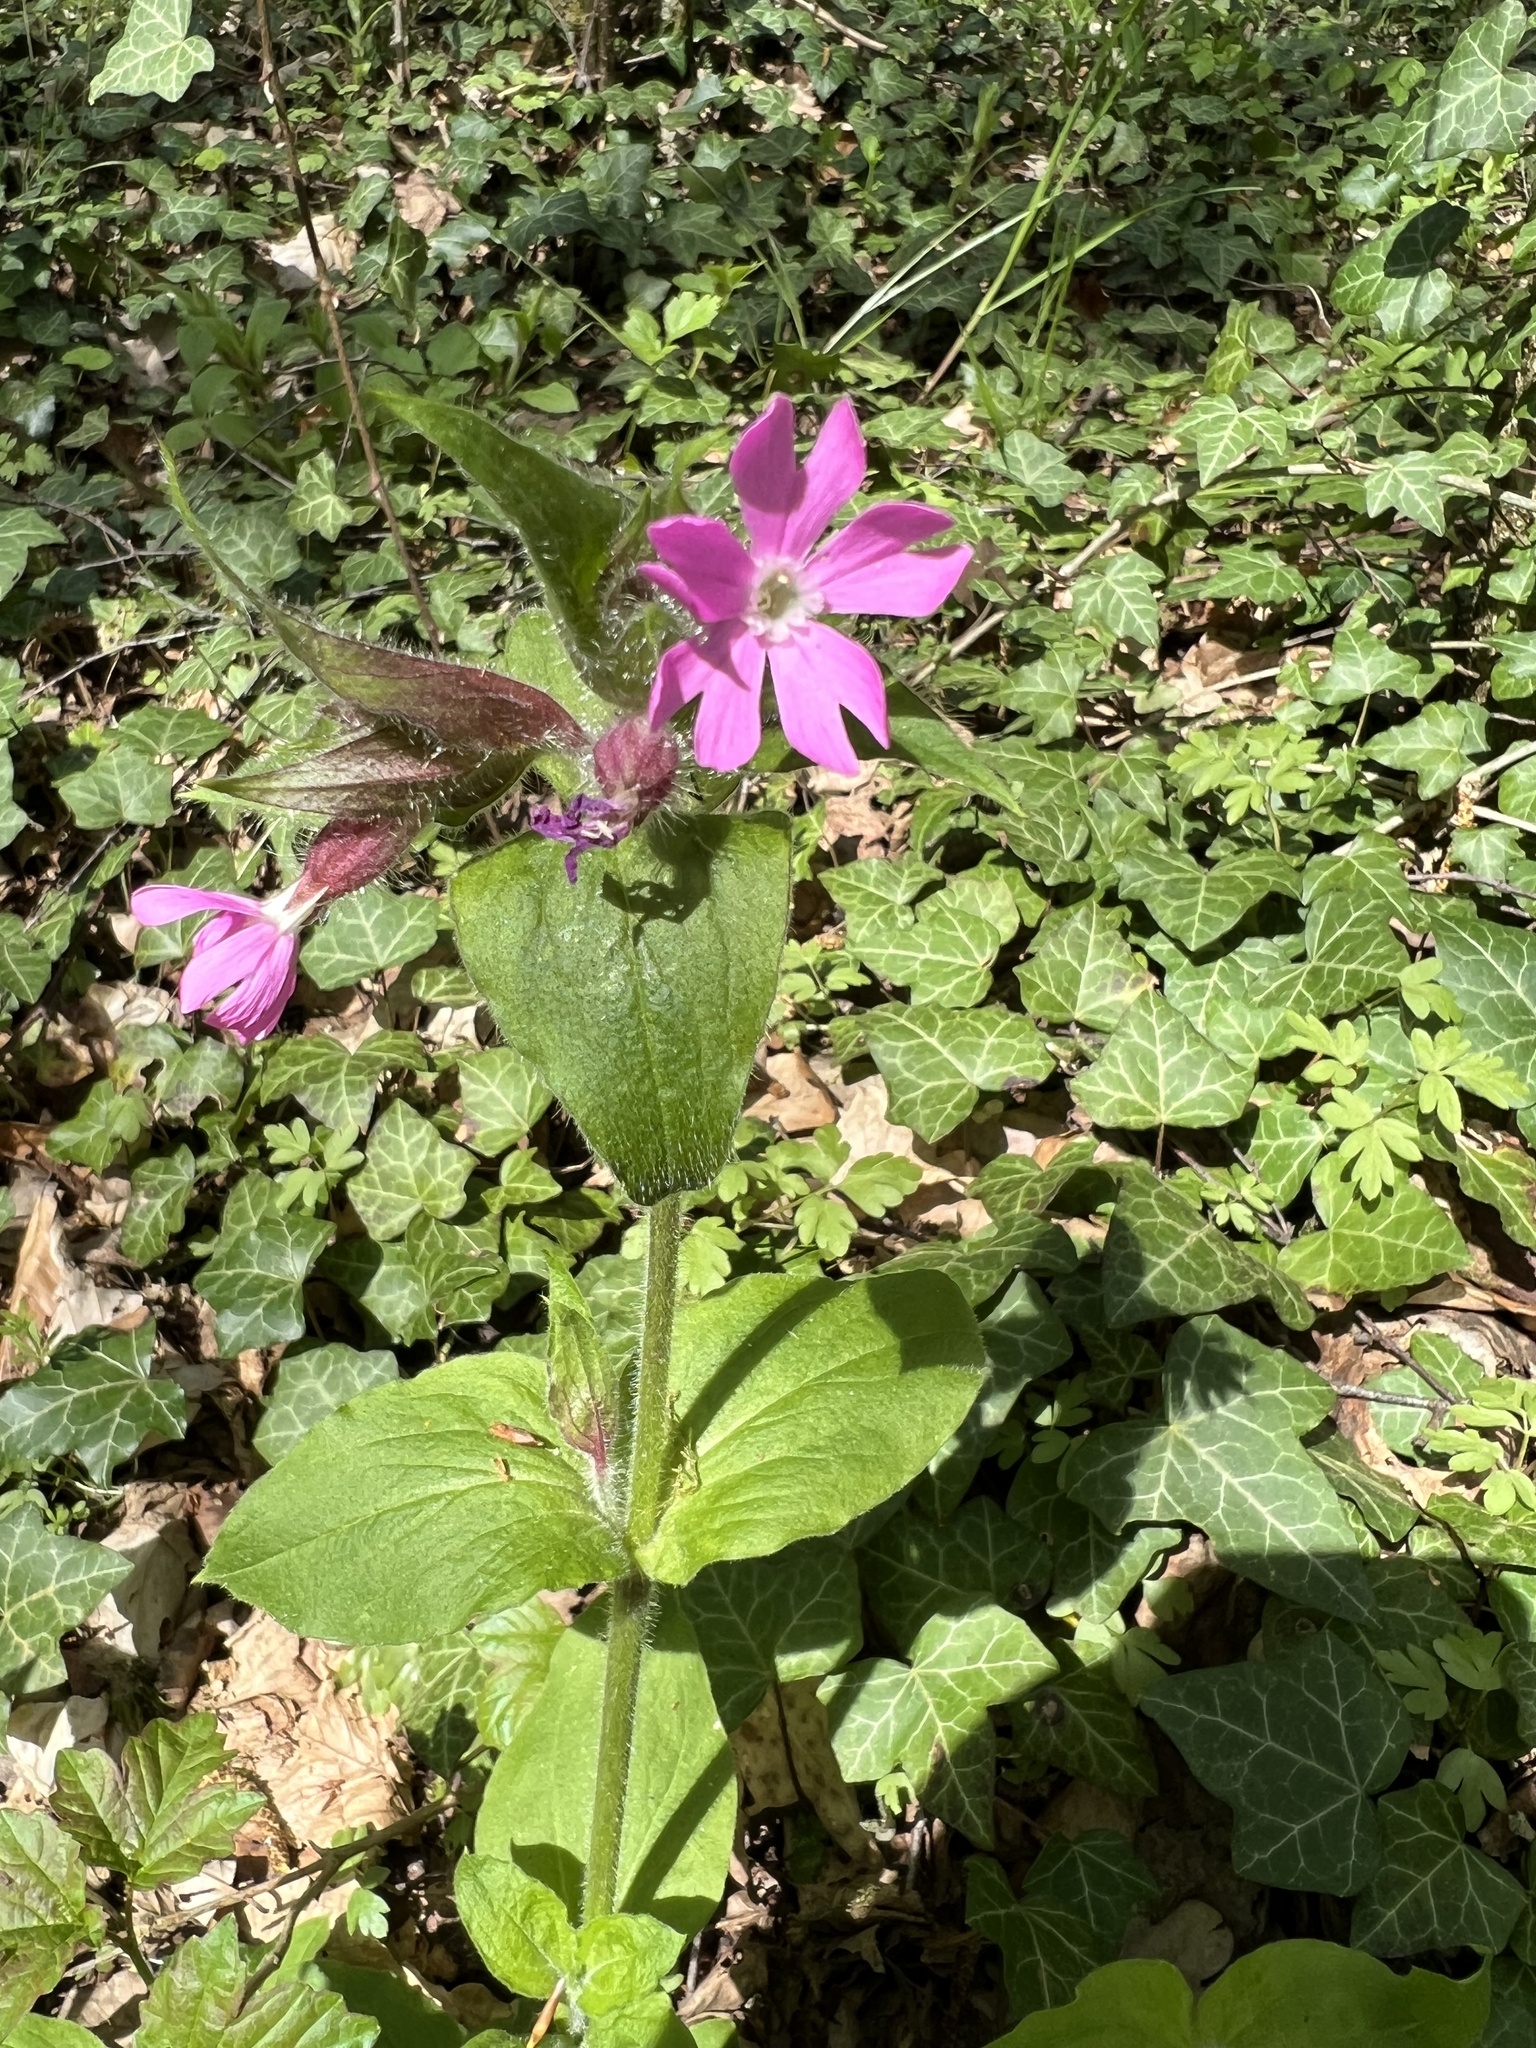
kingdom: Plantae
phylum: Tracheophyta
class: Magnoliopsida
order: Caryophyllales
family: Caryophyllaceae
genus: Silene
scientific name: Silene dioica
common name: Red campion
